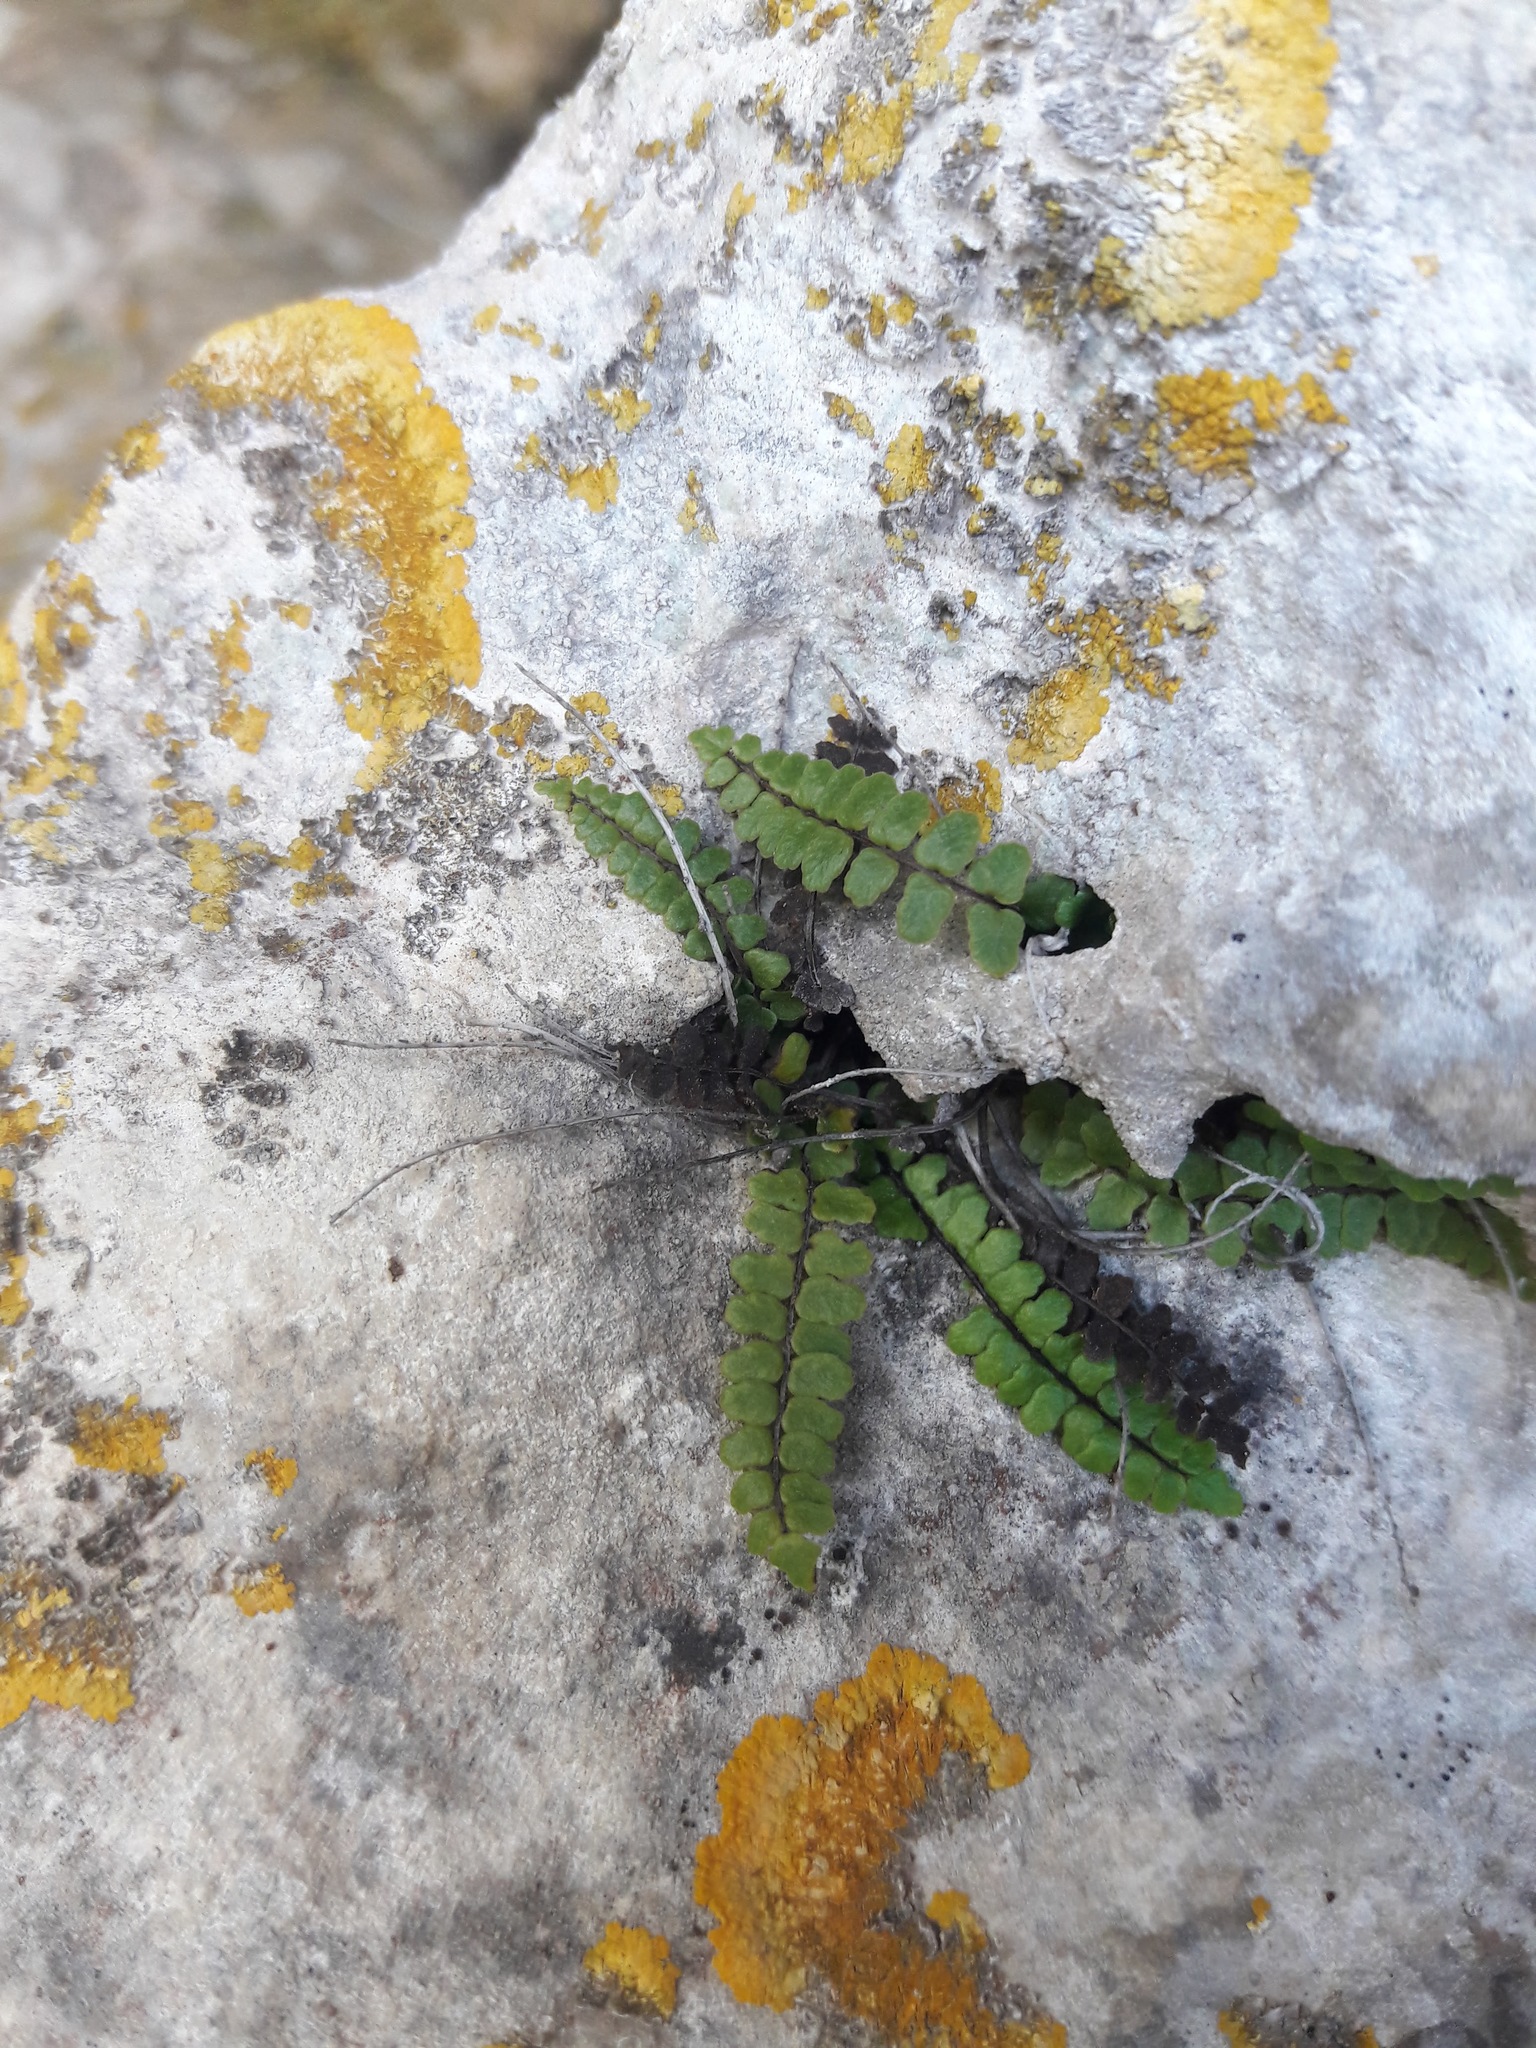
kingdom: Plantae
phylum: Tracheophyta
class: Polypodiopsida
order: Polypodiales
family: Aspleniaceae
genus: Asplenium
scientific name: Asplenium trichomanes
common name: Maidenhair spleenwort
